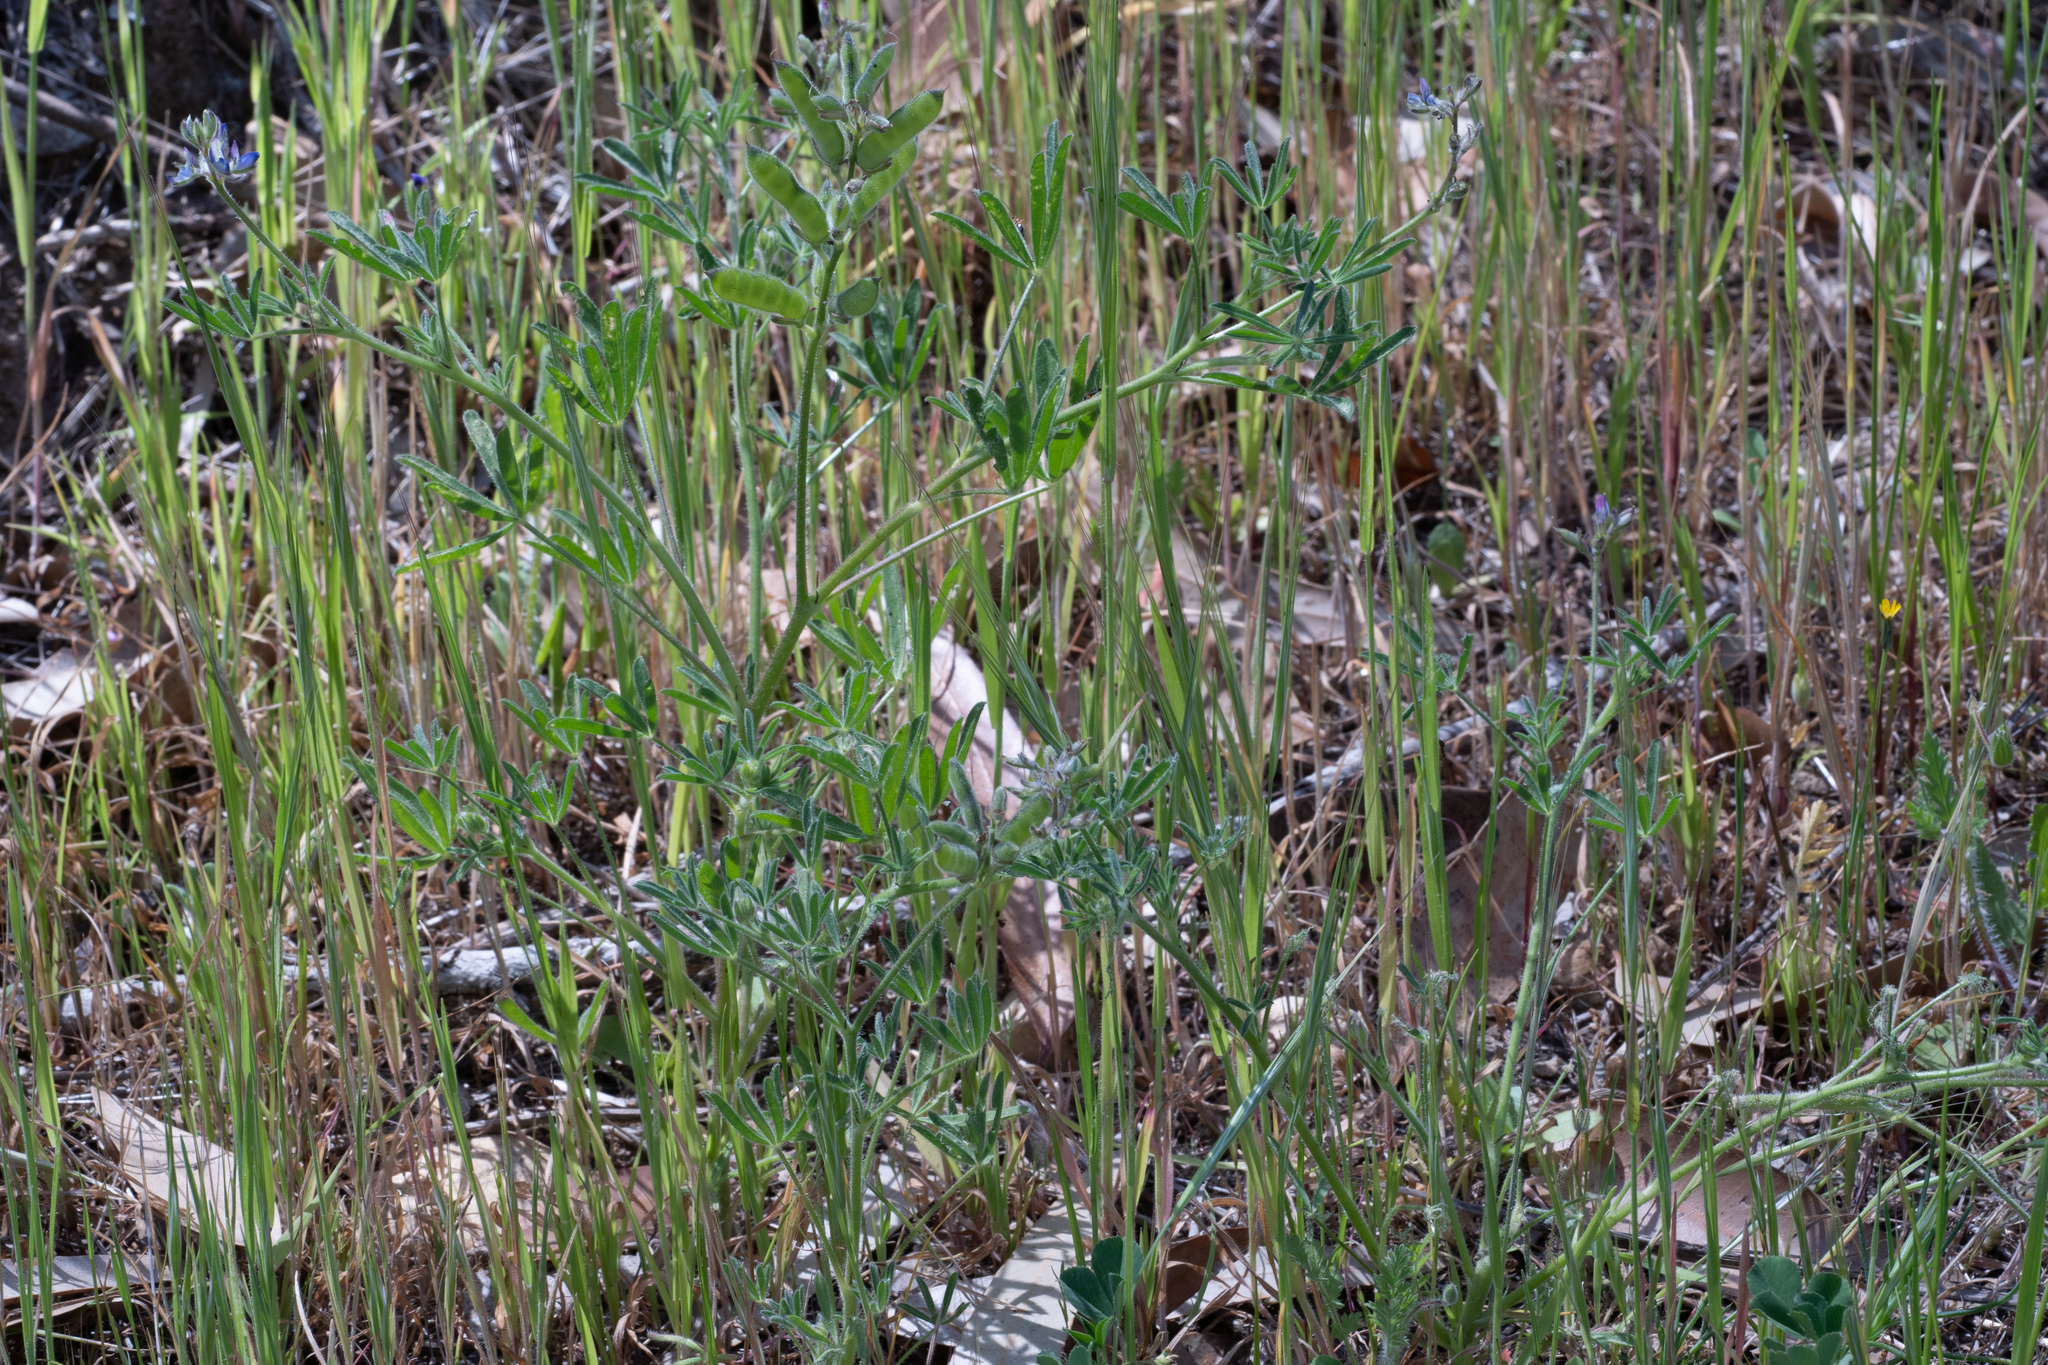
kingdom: Plantae
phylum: Tracheophyta
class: Magnoliopsida
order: Fabales
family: Fabaceae
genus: Lupinus
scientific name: Lupinus bicolor
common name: Miniature lupine
